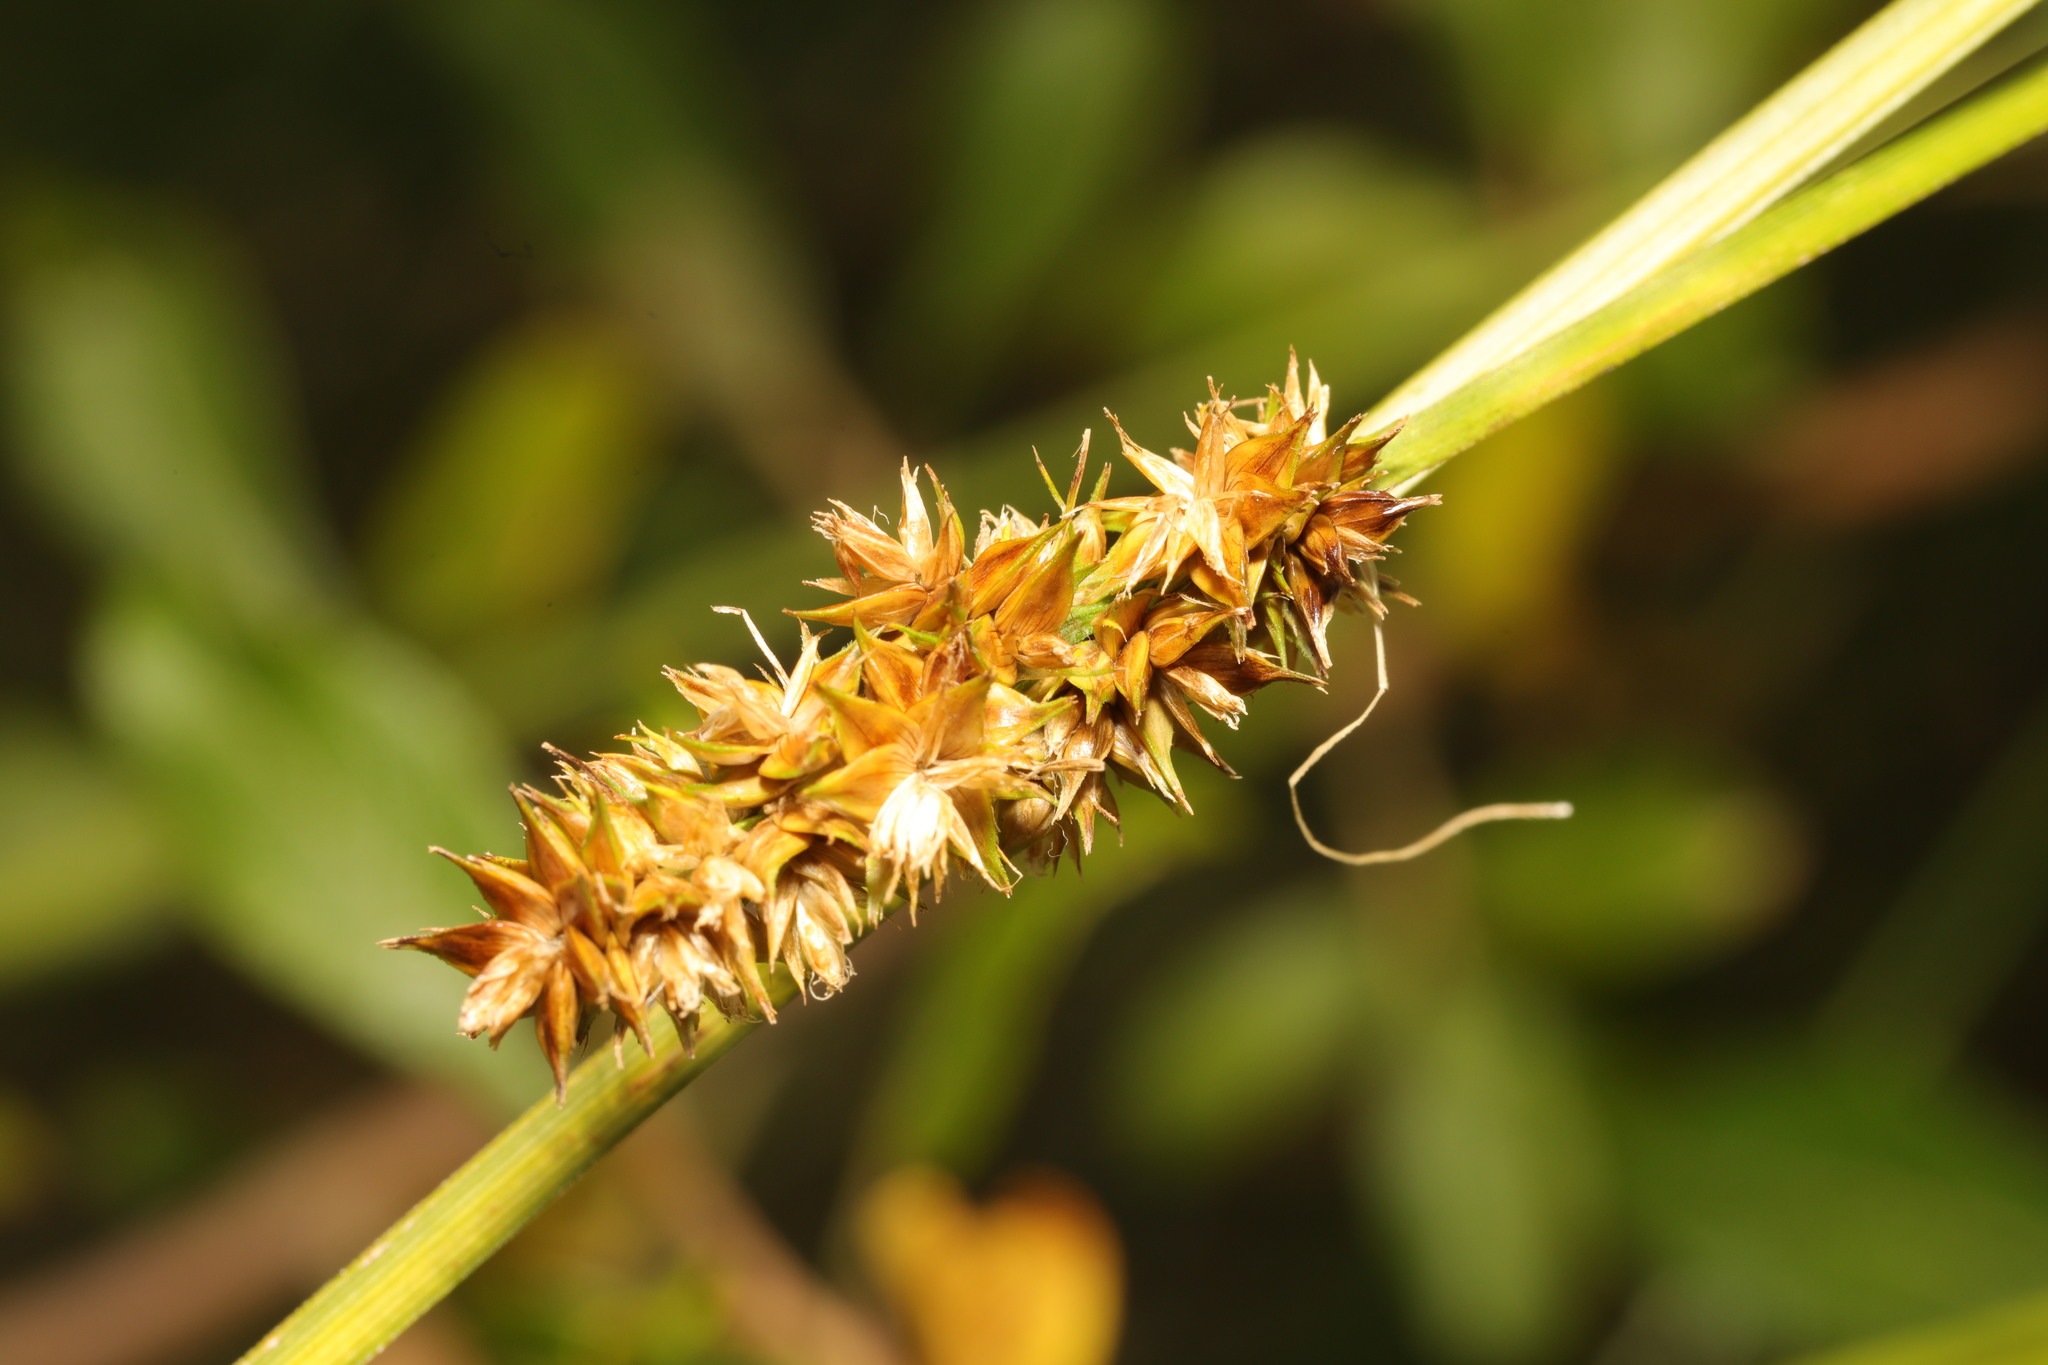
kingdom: Plantae
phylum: Tracheophyta
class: Liliopsida
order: Poales
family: Cyperaceae
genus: Carex
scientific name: Carex otrubae
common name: False fox-sedge
